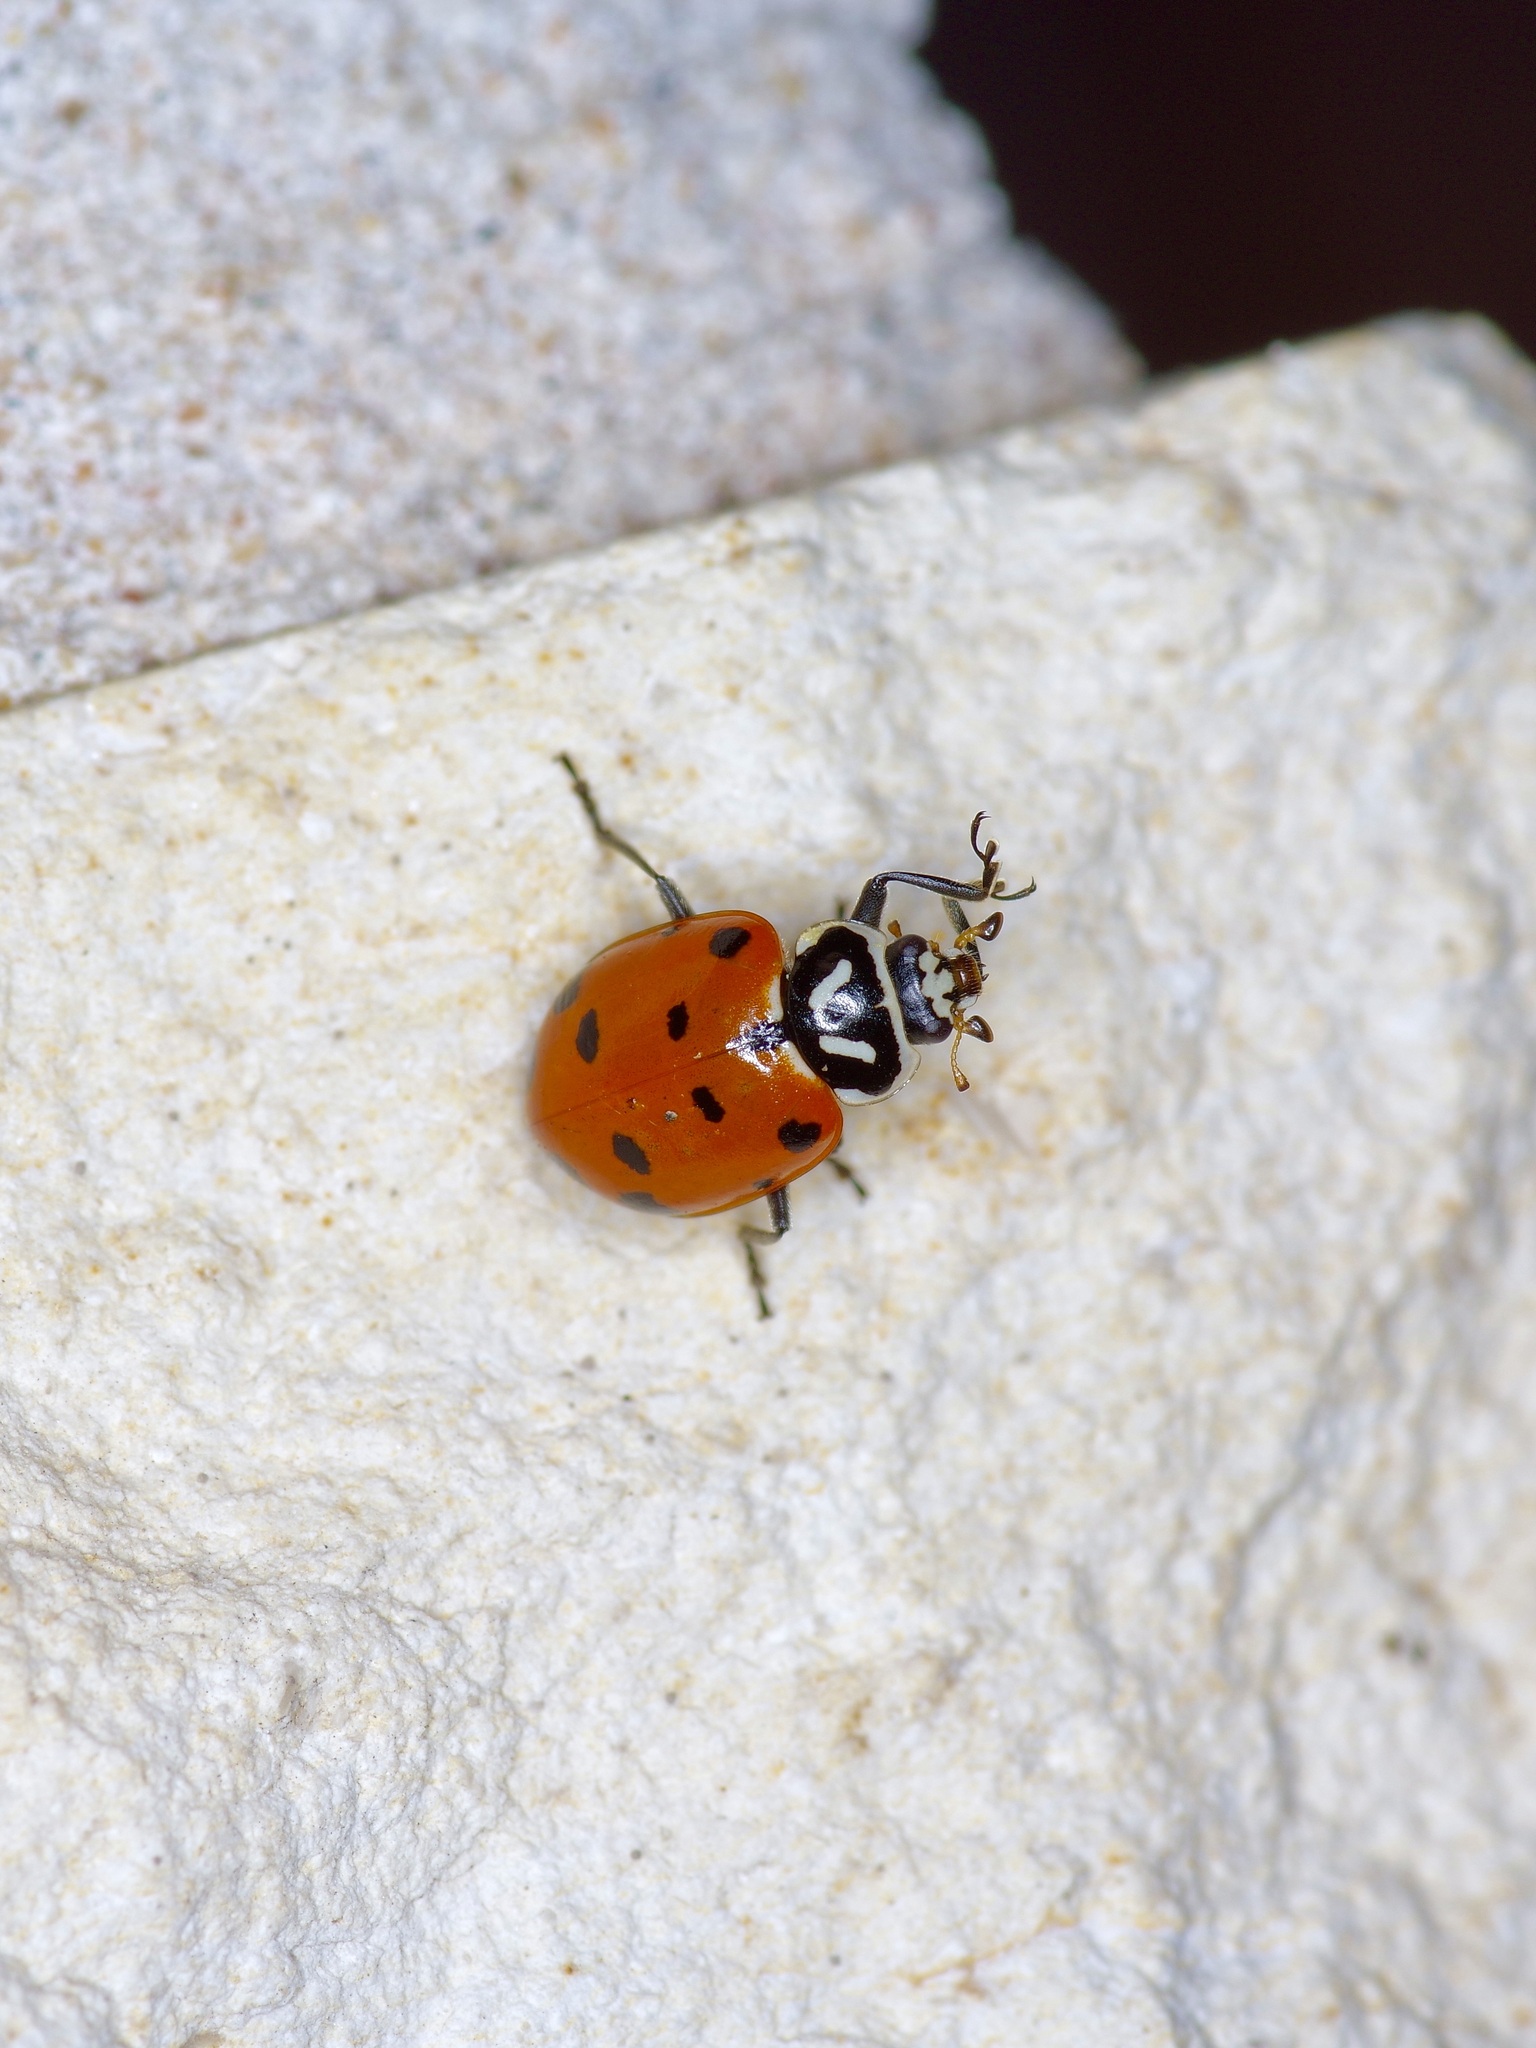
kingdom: Animalia
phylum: Arthropoda
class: Insecta
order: Coleoptera
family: Coccinellidae
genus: Hippodamia
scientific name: Hippodamia convergens
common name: Convergent lady beetle
